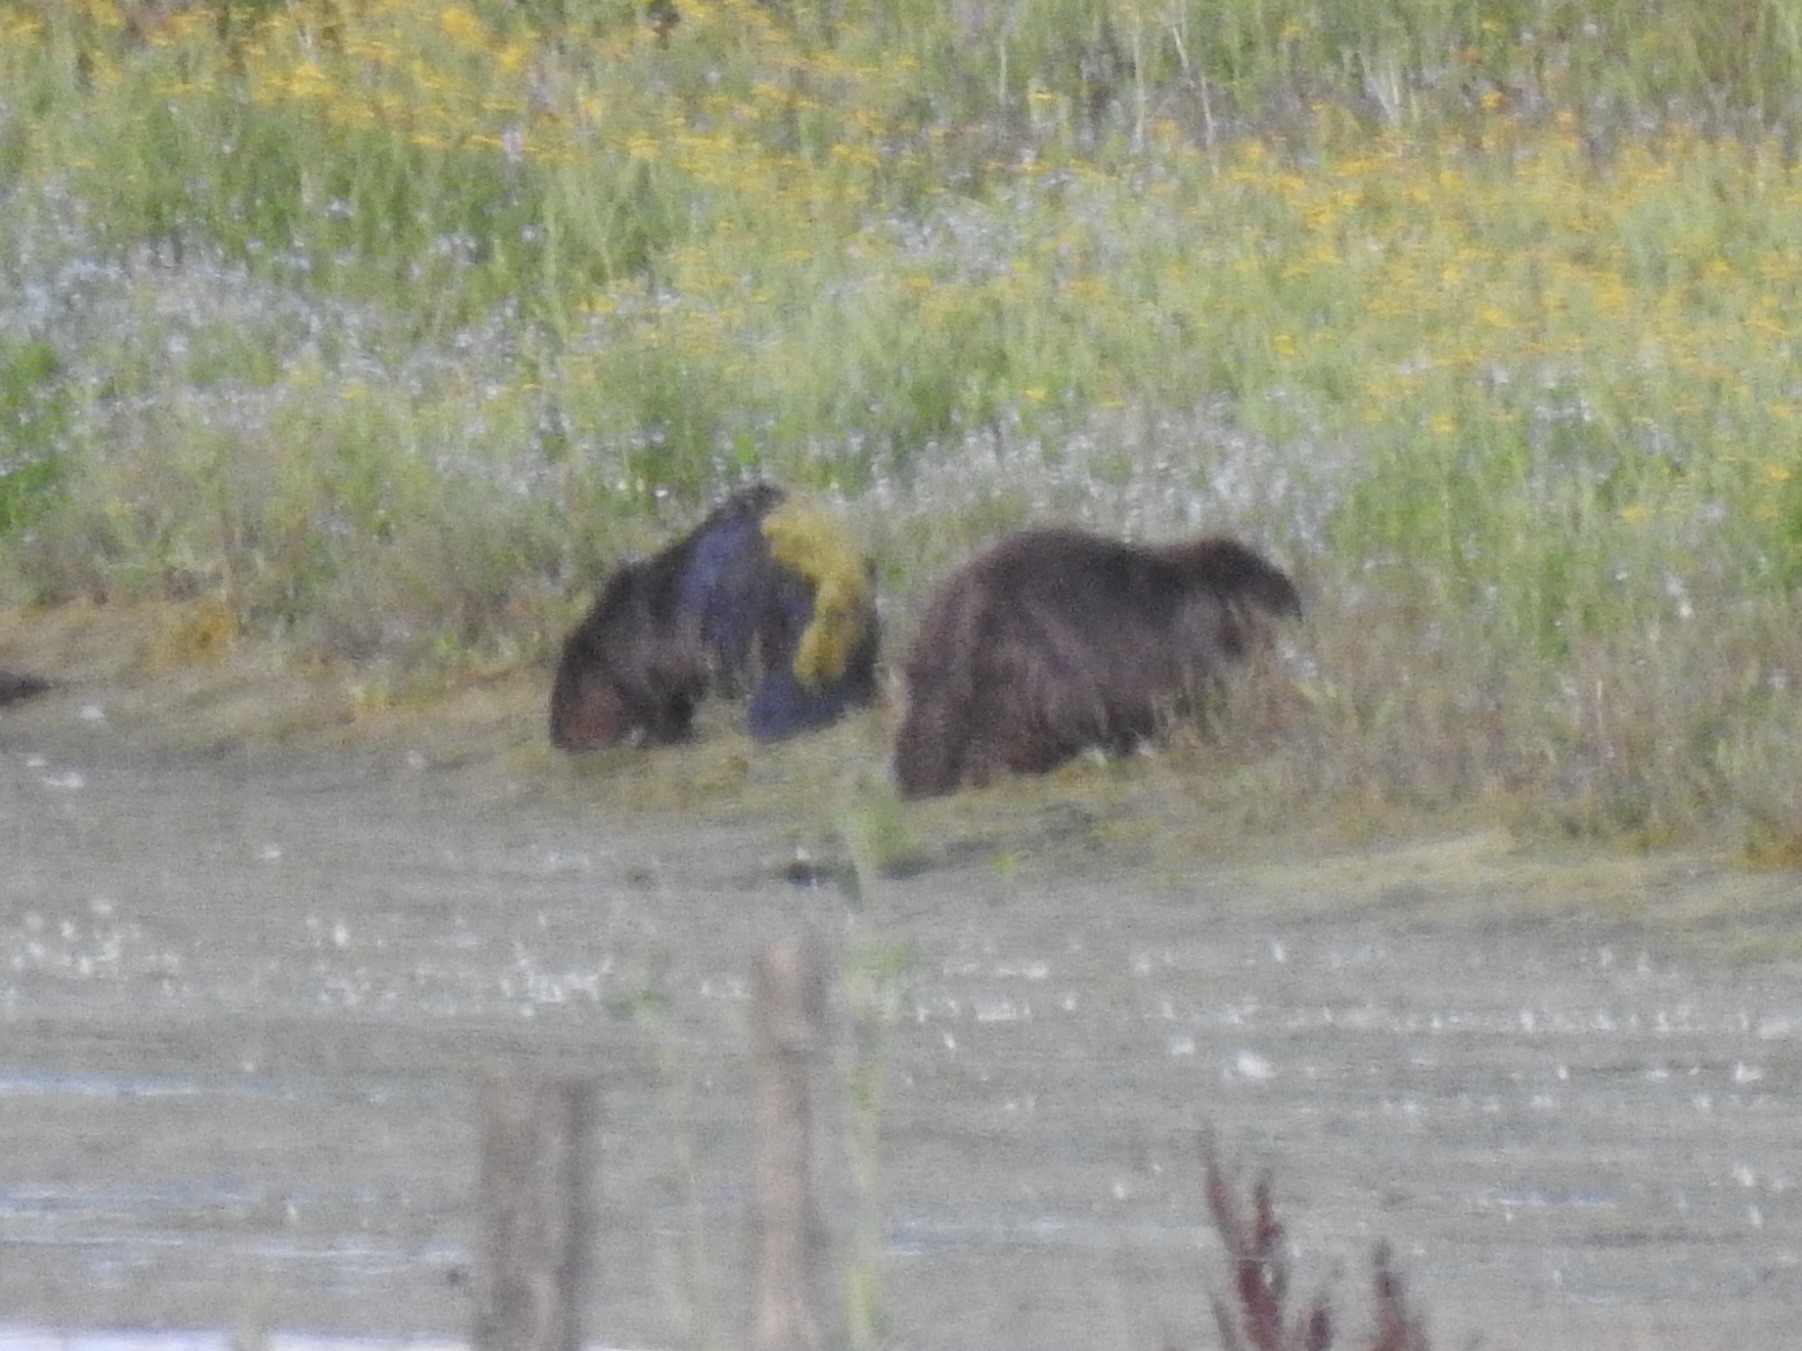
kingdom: Animalia
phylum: Chordata
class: Mammalia
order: Rodentia
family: Castoridae
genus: Castor
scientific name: Castor fiber
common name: Eurasian beaver
